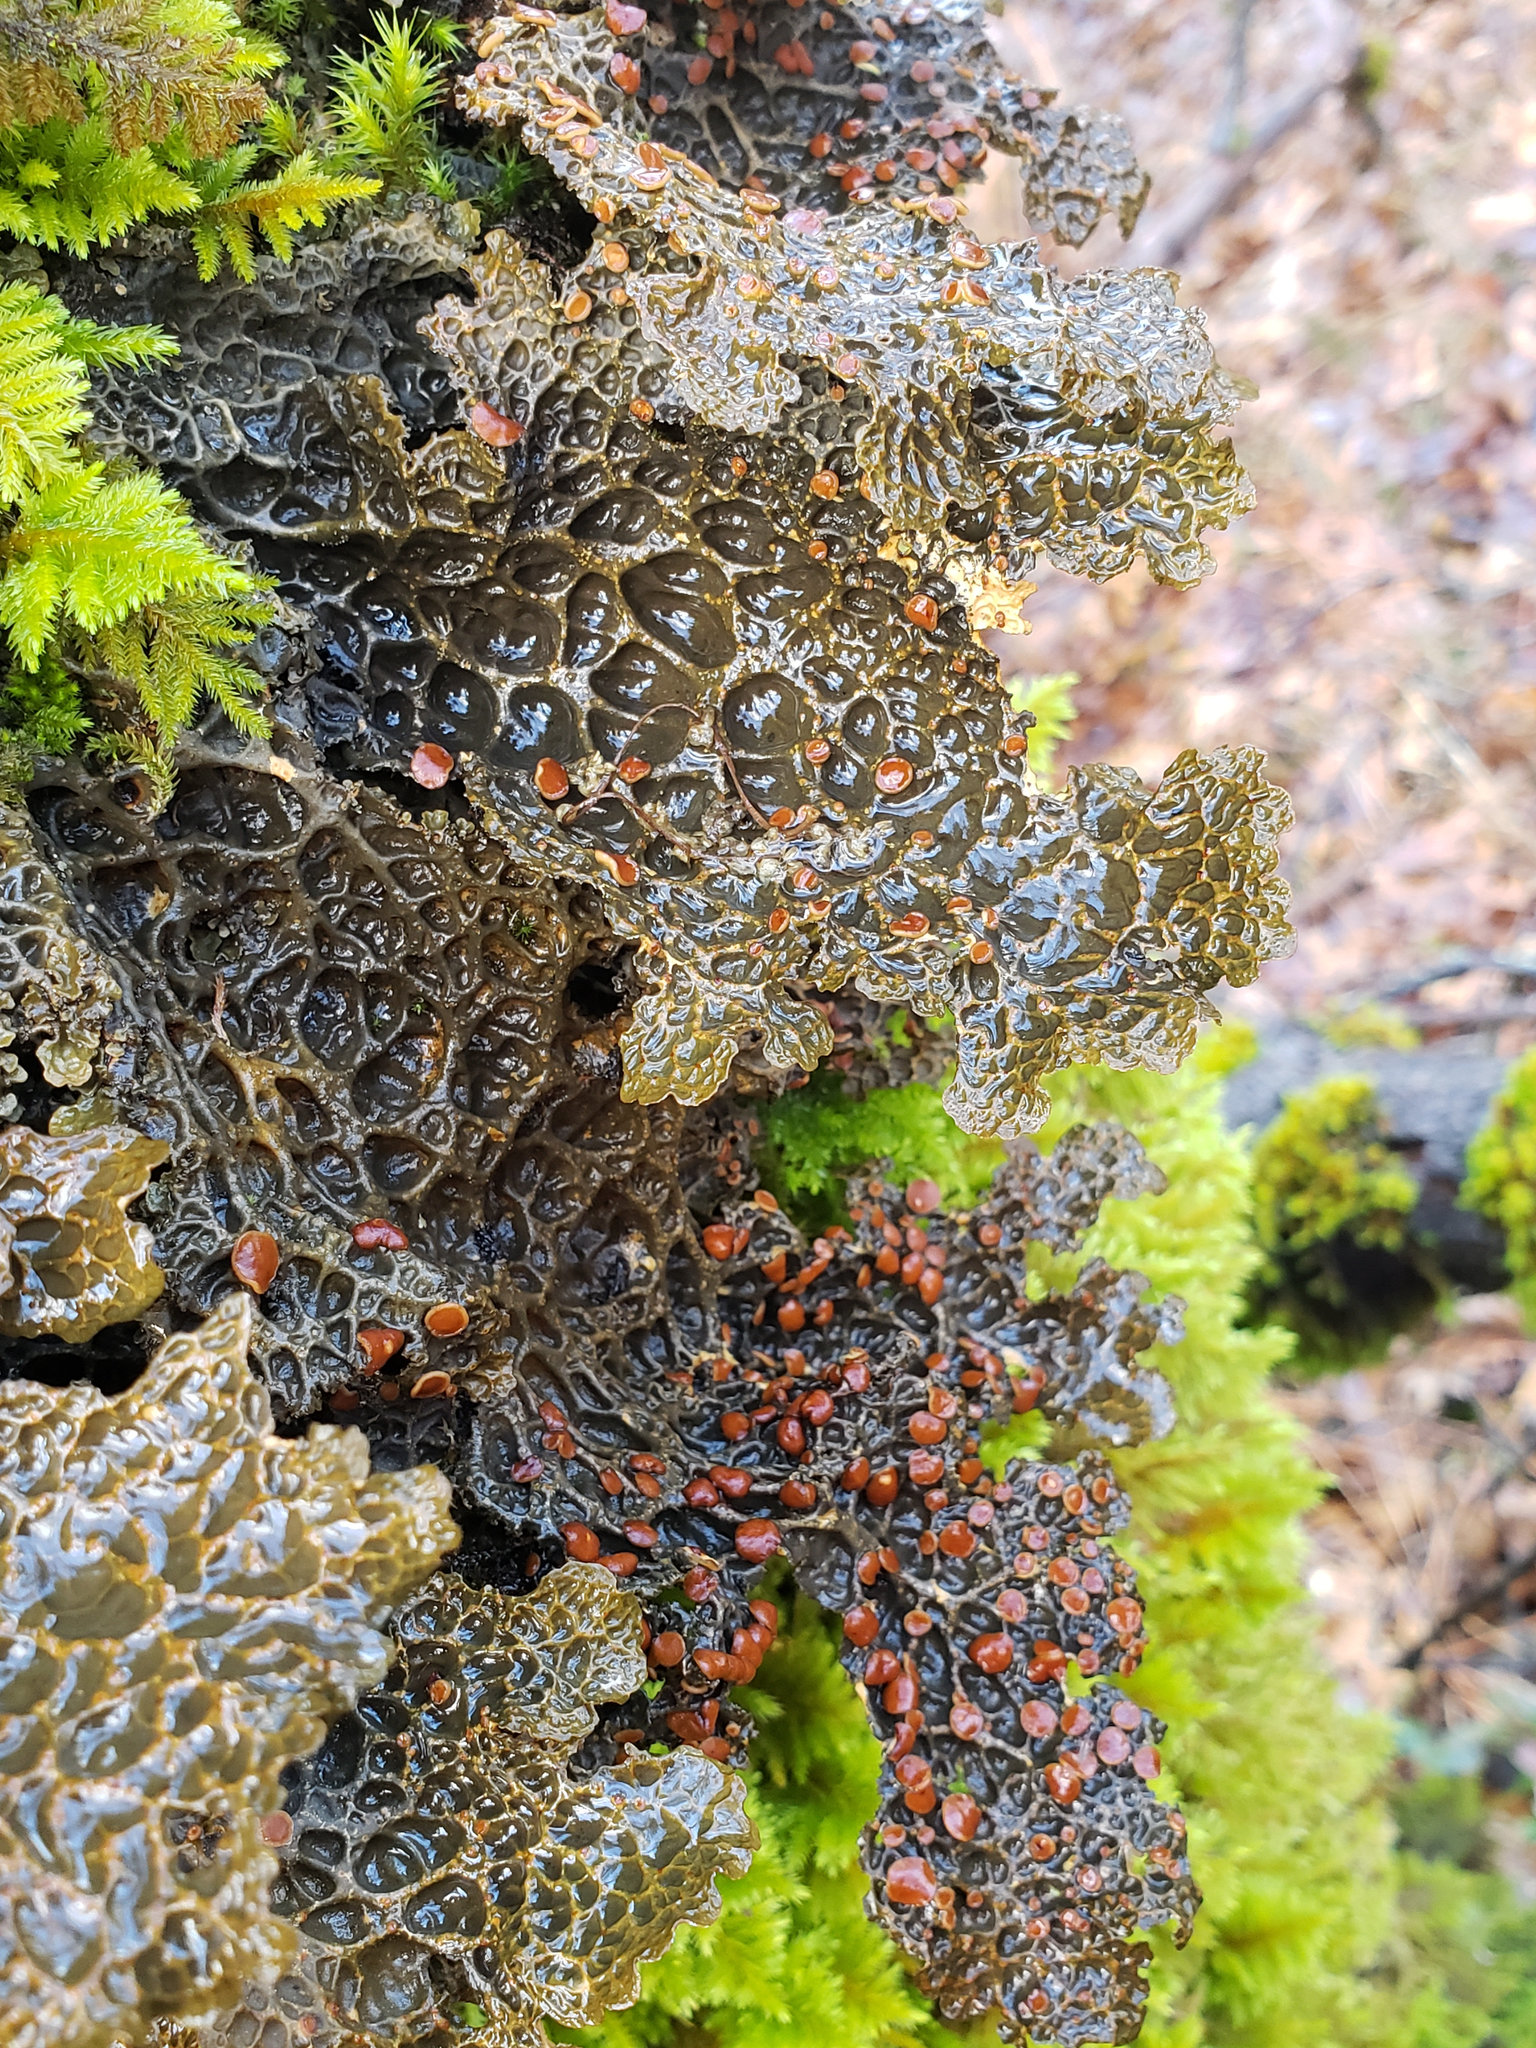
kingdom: Fungi
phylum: Ascomycota
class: Lecanoromycetes
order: Peltigerales
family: Lobariaceae
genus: Lobaria
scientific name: Lobaria anthraspis
